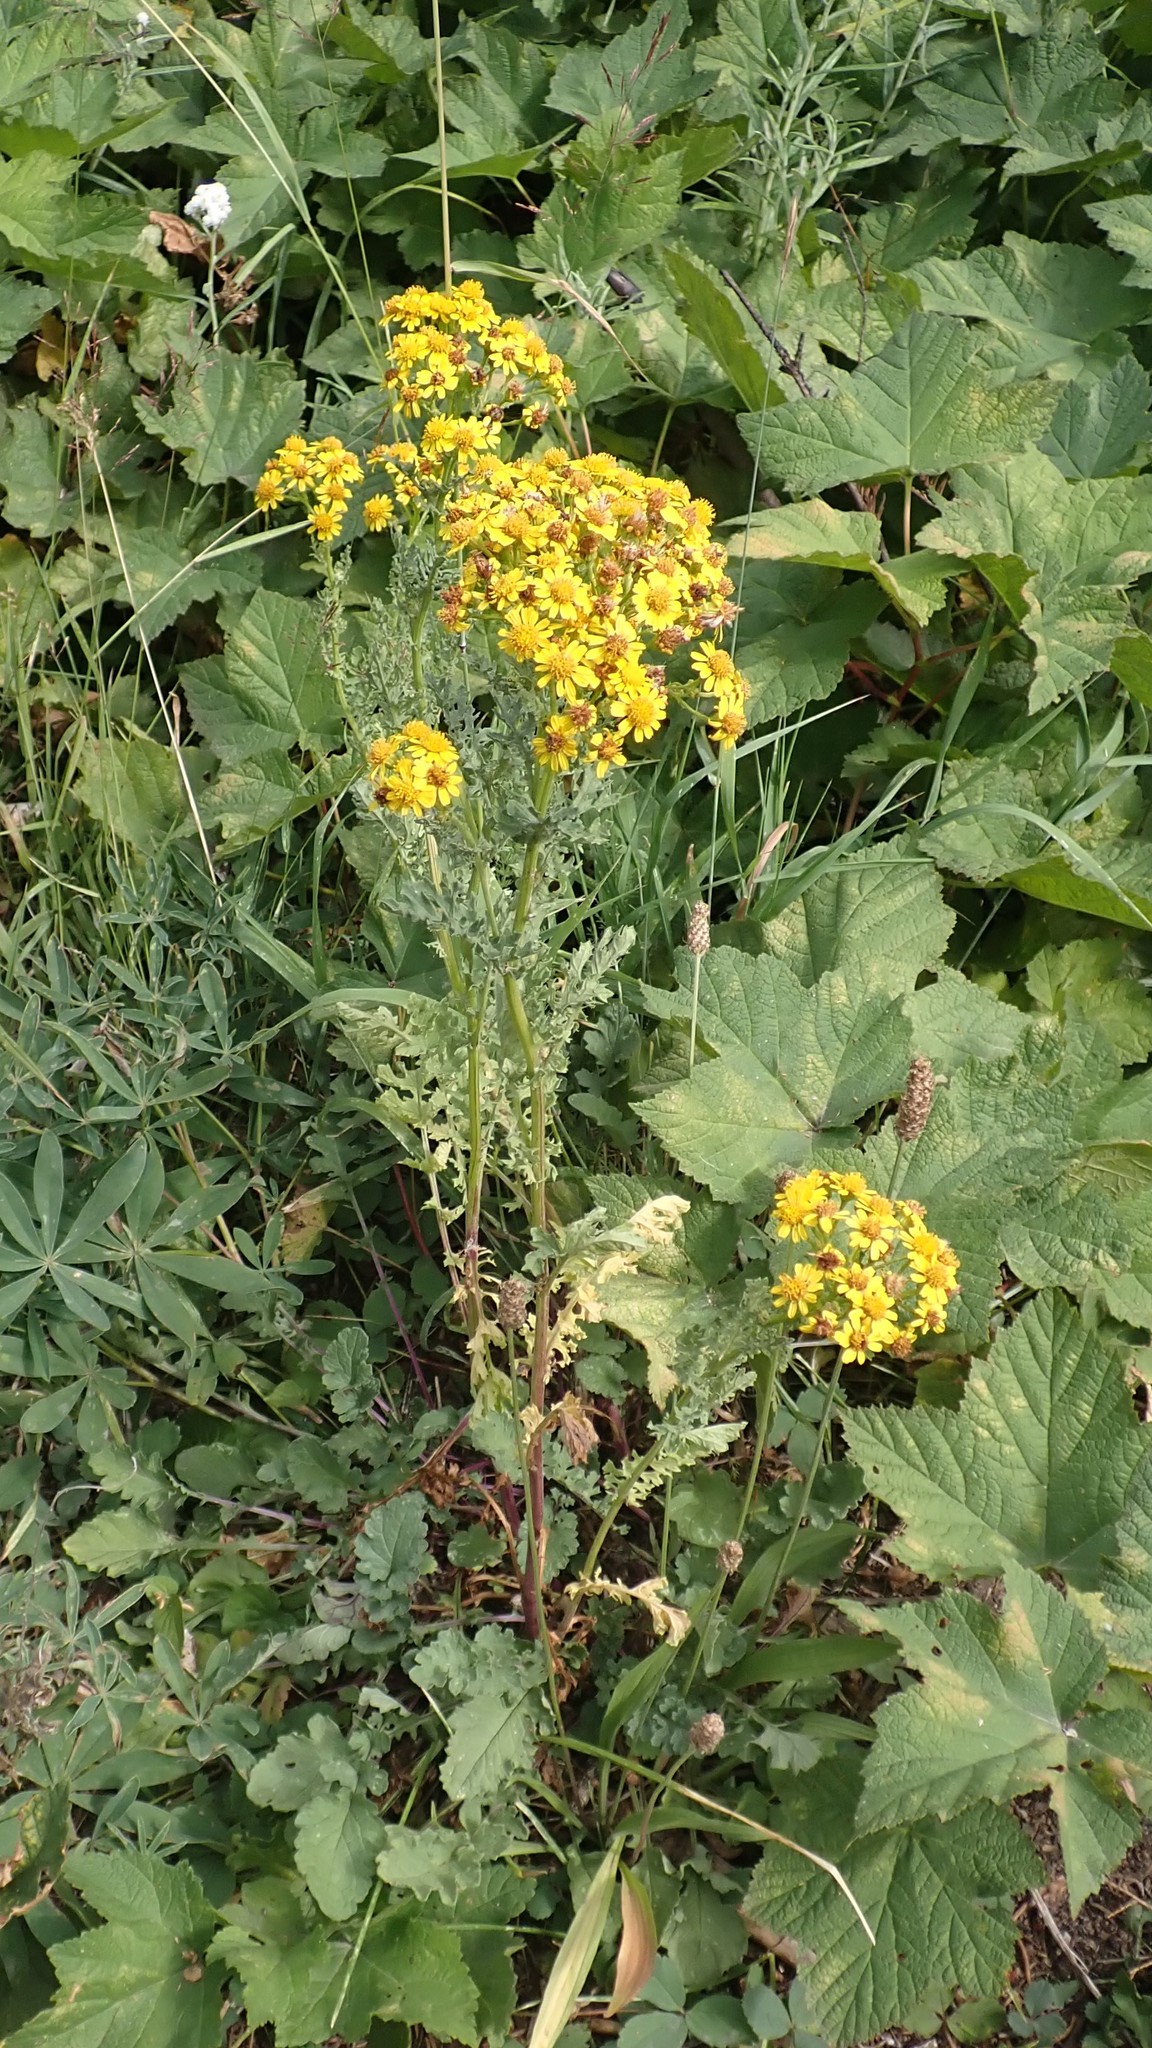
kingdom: Plantae
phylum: Tracheophyta
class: Magnoliopsida
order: Asterales
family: Asteraceae
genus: Jacobaea
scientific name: Jacobaea vulgaris
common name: Stinking willie
